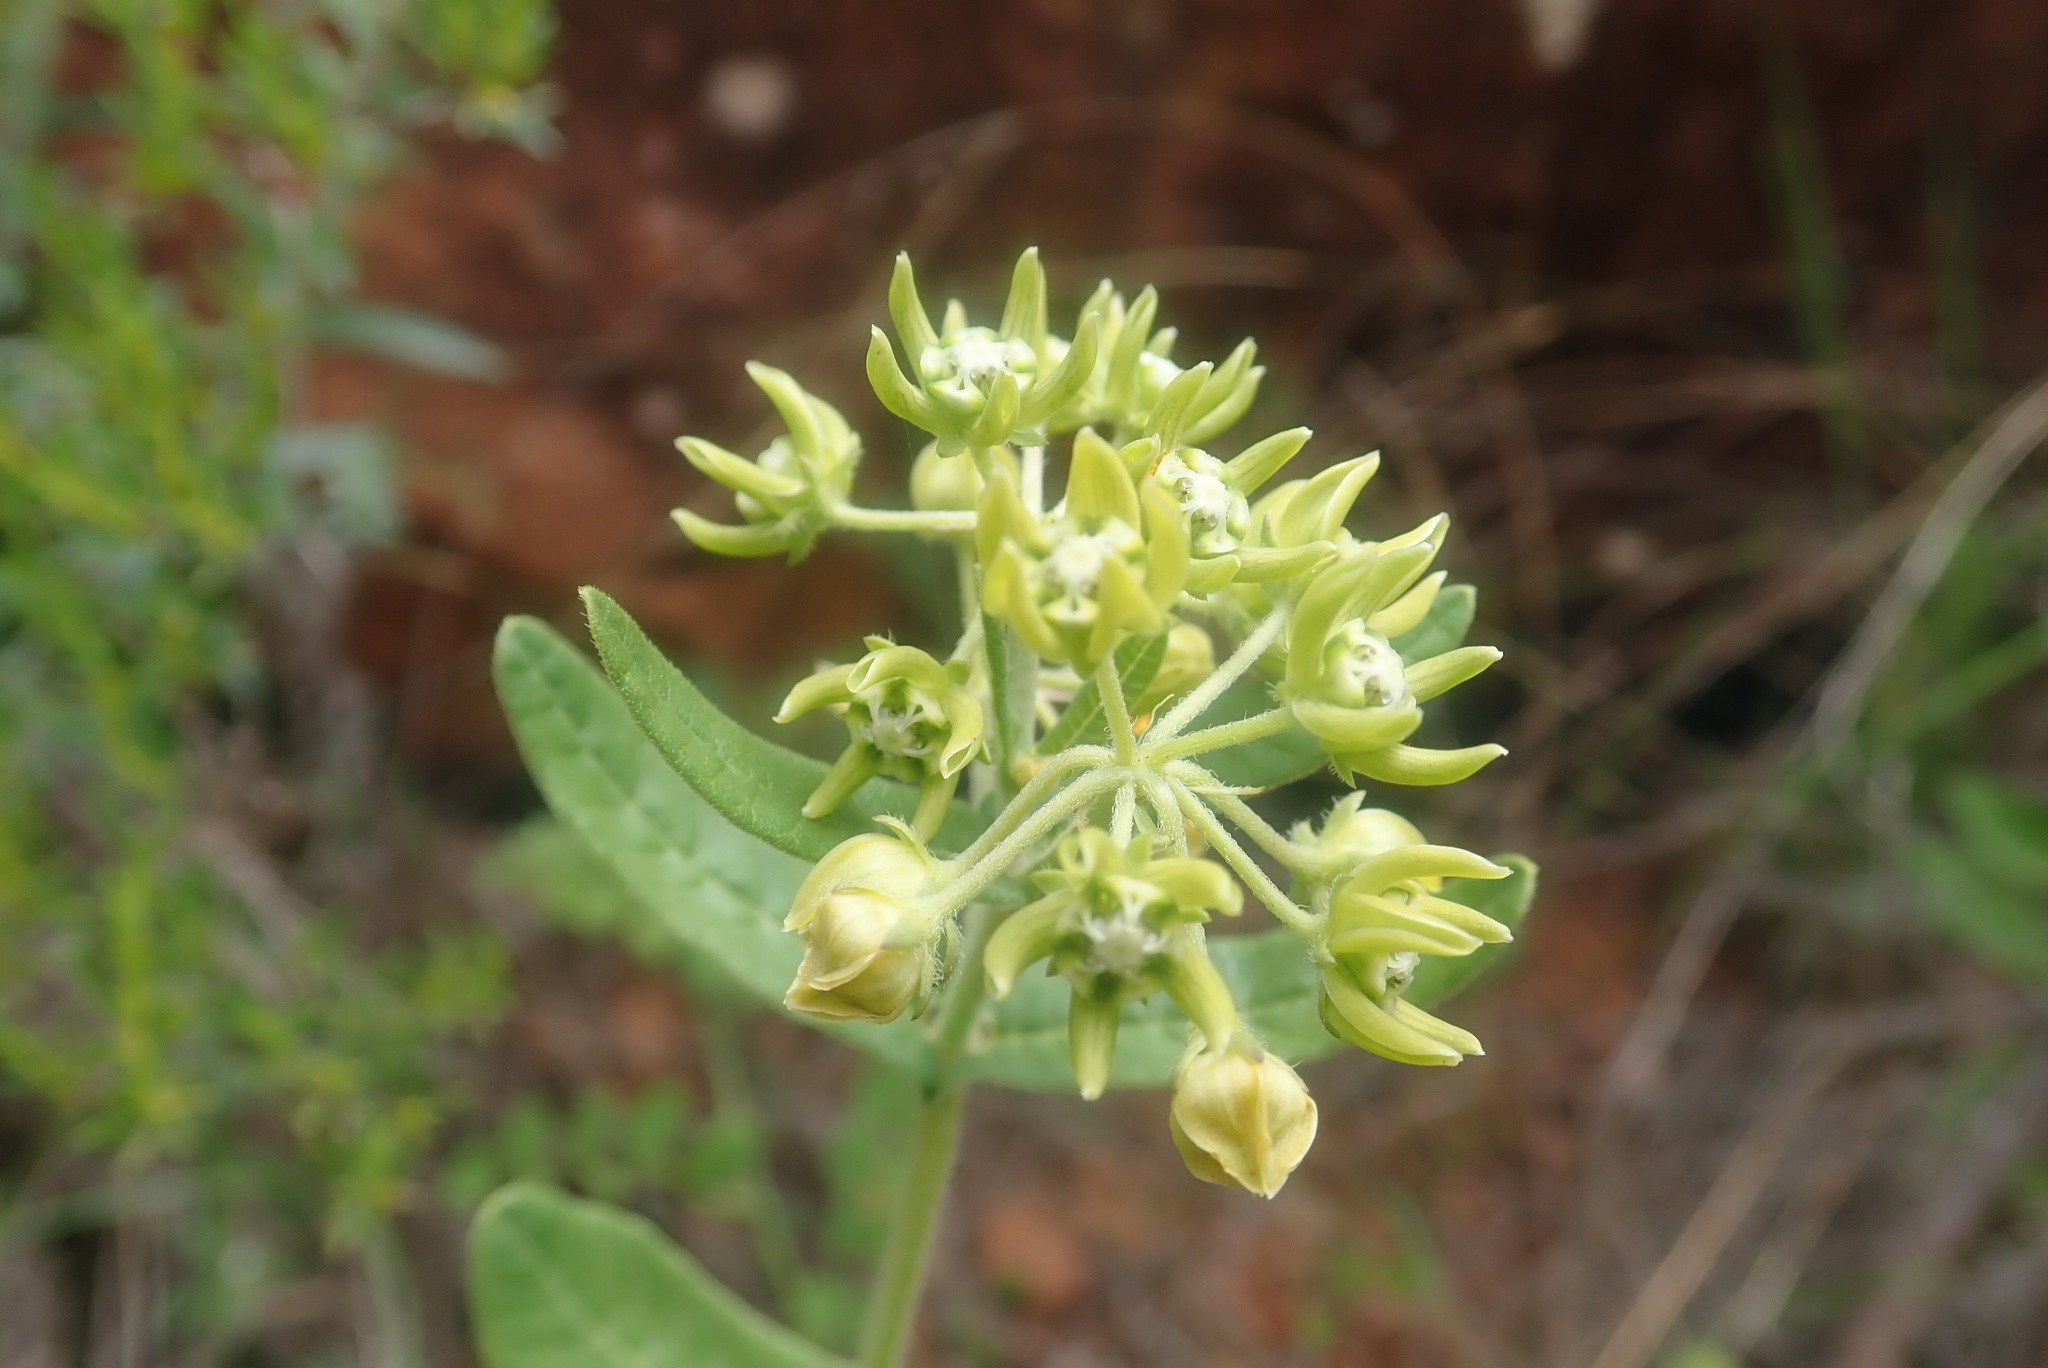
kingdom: Plantae
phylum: Tracheophyta
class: Magnoliopsida
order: Gentianales
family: Apocynaceae
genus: Schizoglossum
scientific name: Schizoglossum cordifolium
